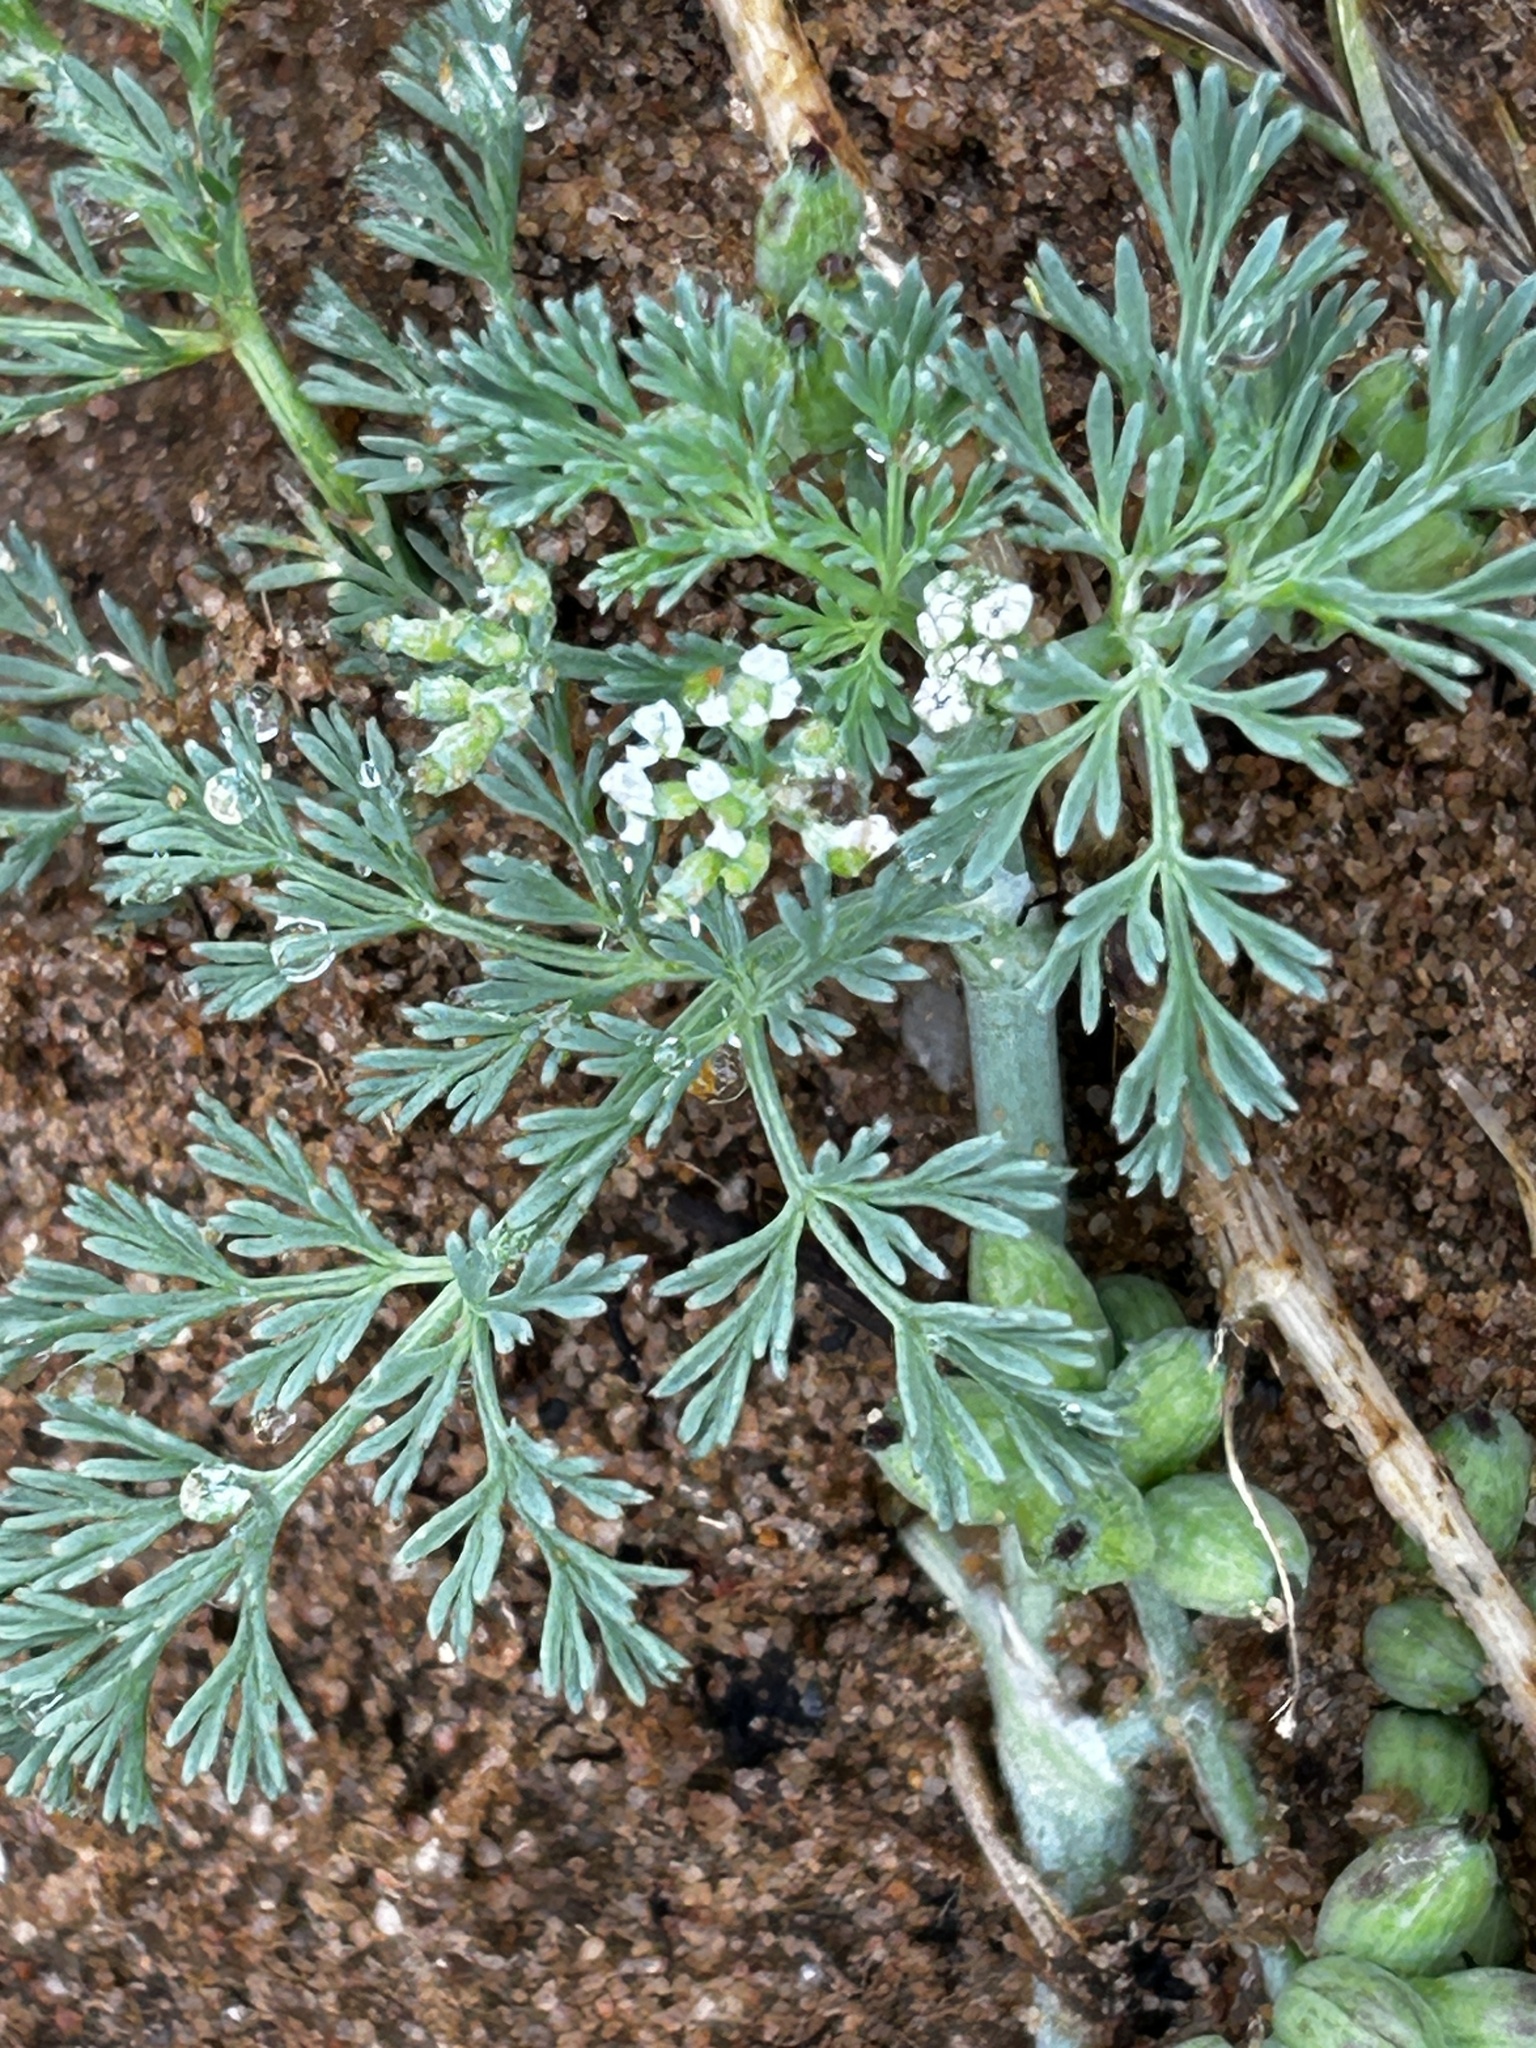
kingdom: Plantae
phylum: Tracheophyta
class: Magnoliopsida
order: Apiales
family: Apiaceae
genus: Capnophyllum
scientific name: Capnophyllum africanum
